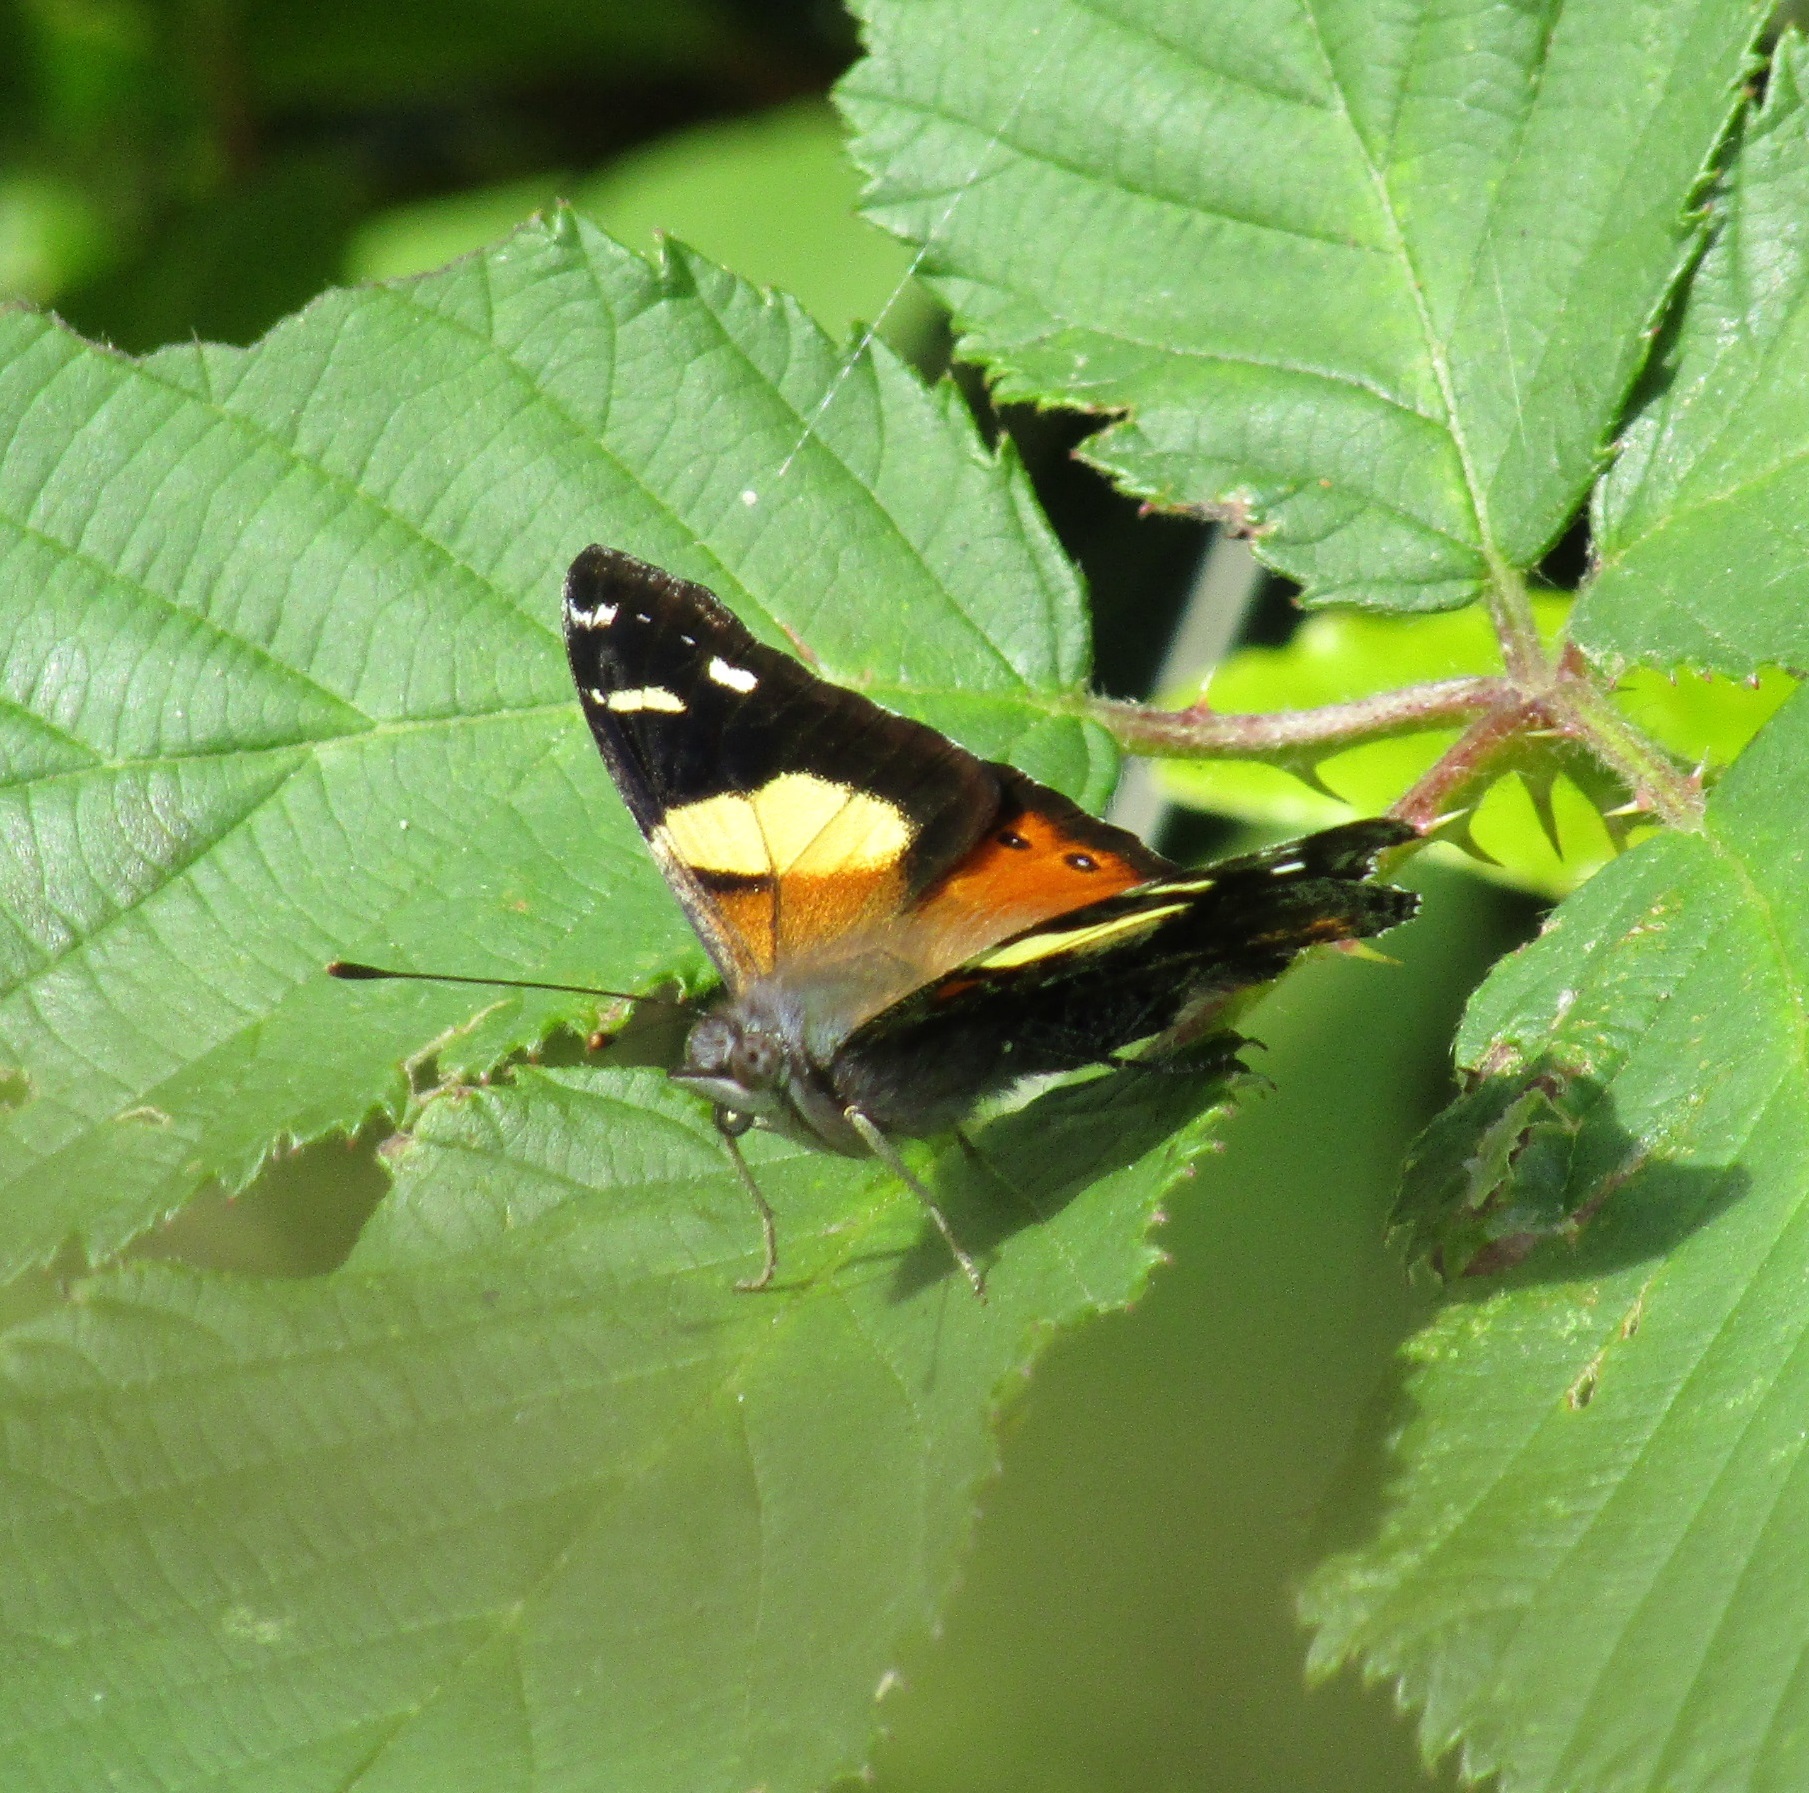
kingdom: Animalia
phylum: Arthropoda
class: Insecta
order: Lepidoptera
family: Nymphalidae
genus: Vanessa
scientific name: Vanessa itea
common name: Yellow admiral
